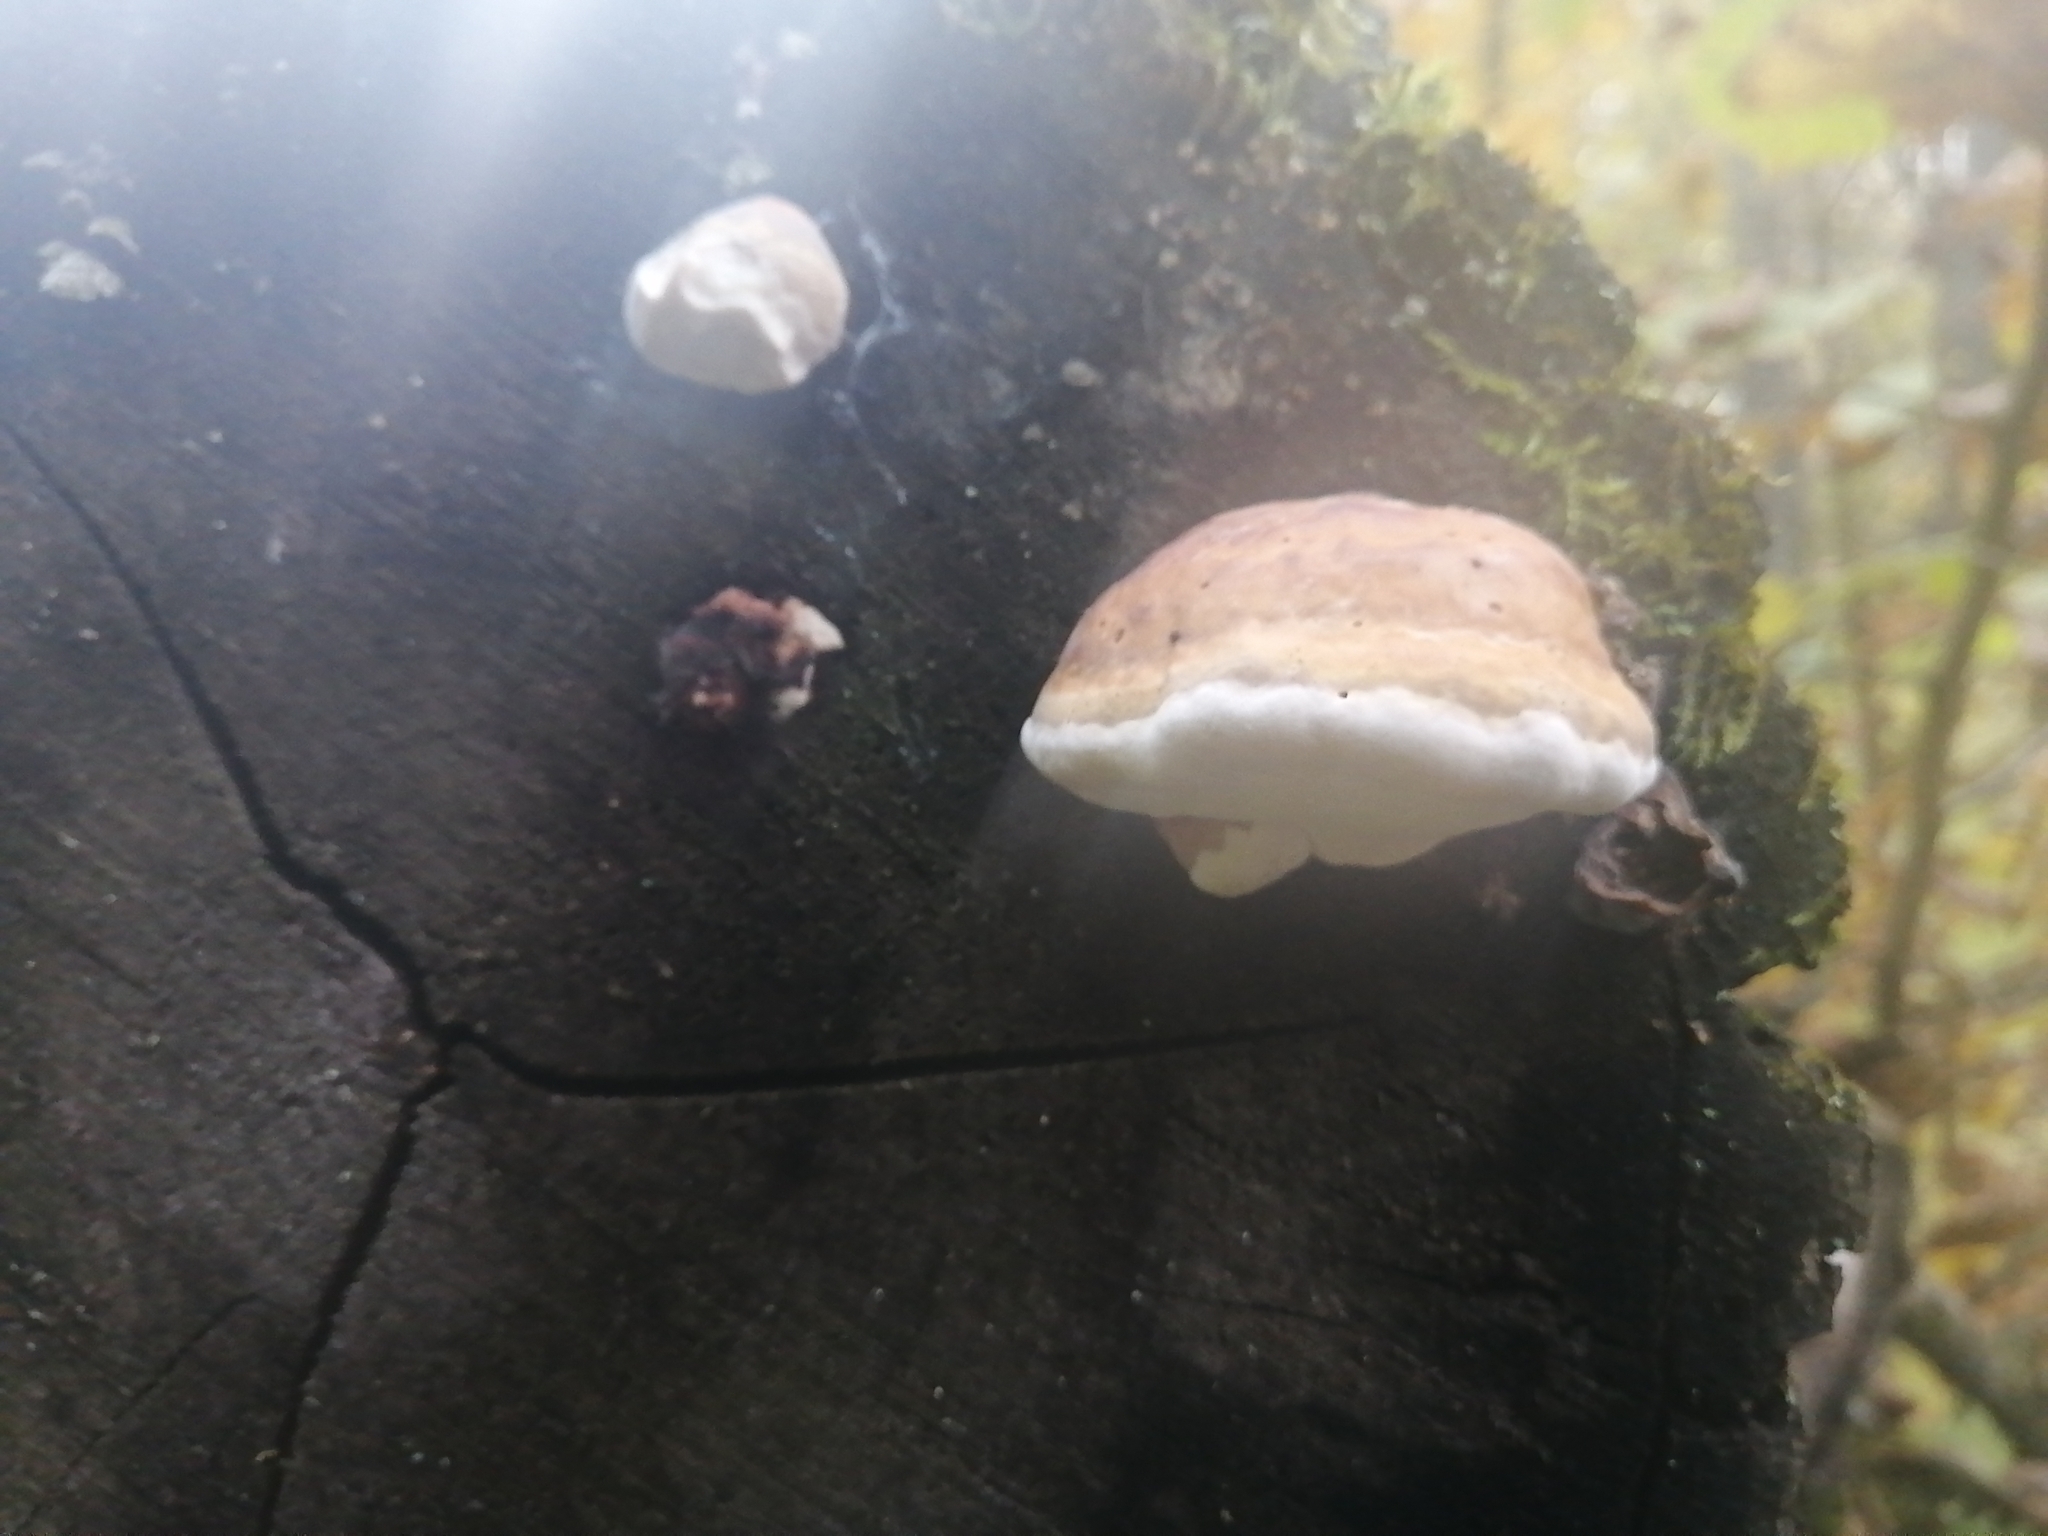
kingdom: Fungi
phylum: Basidiomycota
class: Agaricomycetes
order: Polyporales
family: Fomitopsidaceae
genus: Fomitopsis
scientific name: Fomitopsis pinicola
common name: Red-belted bracket
